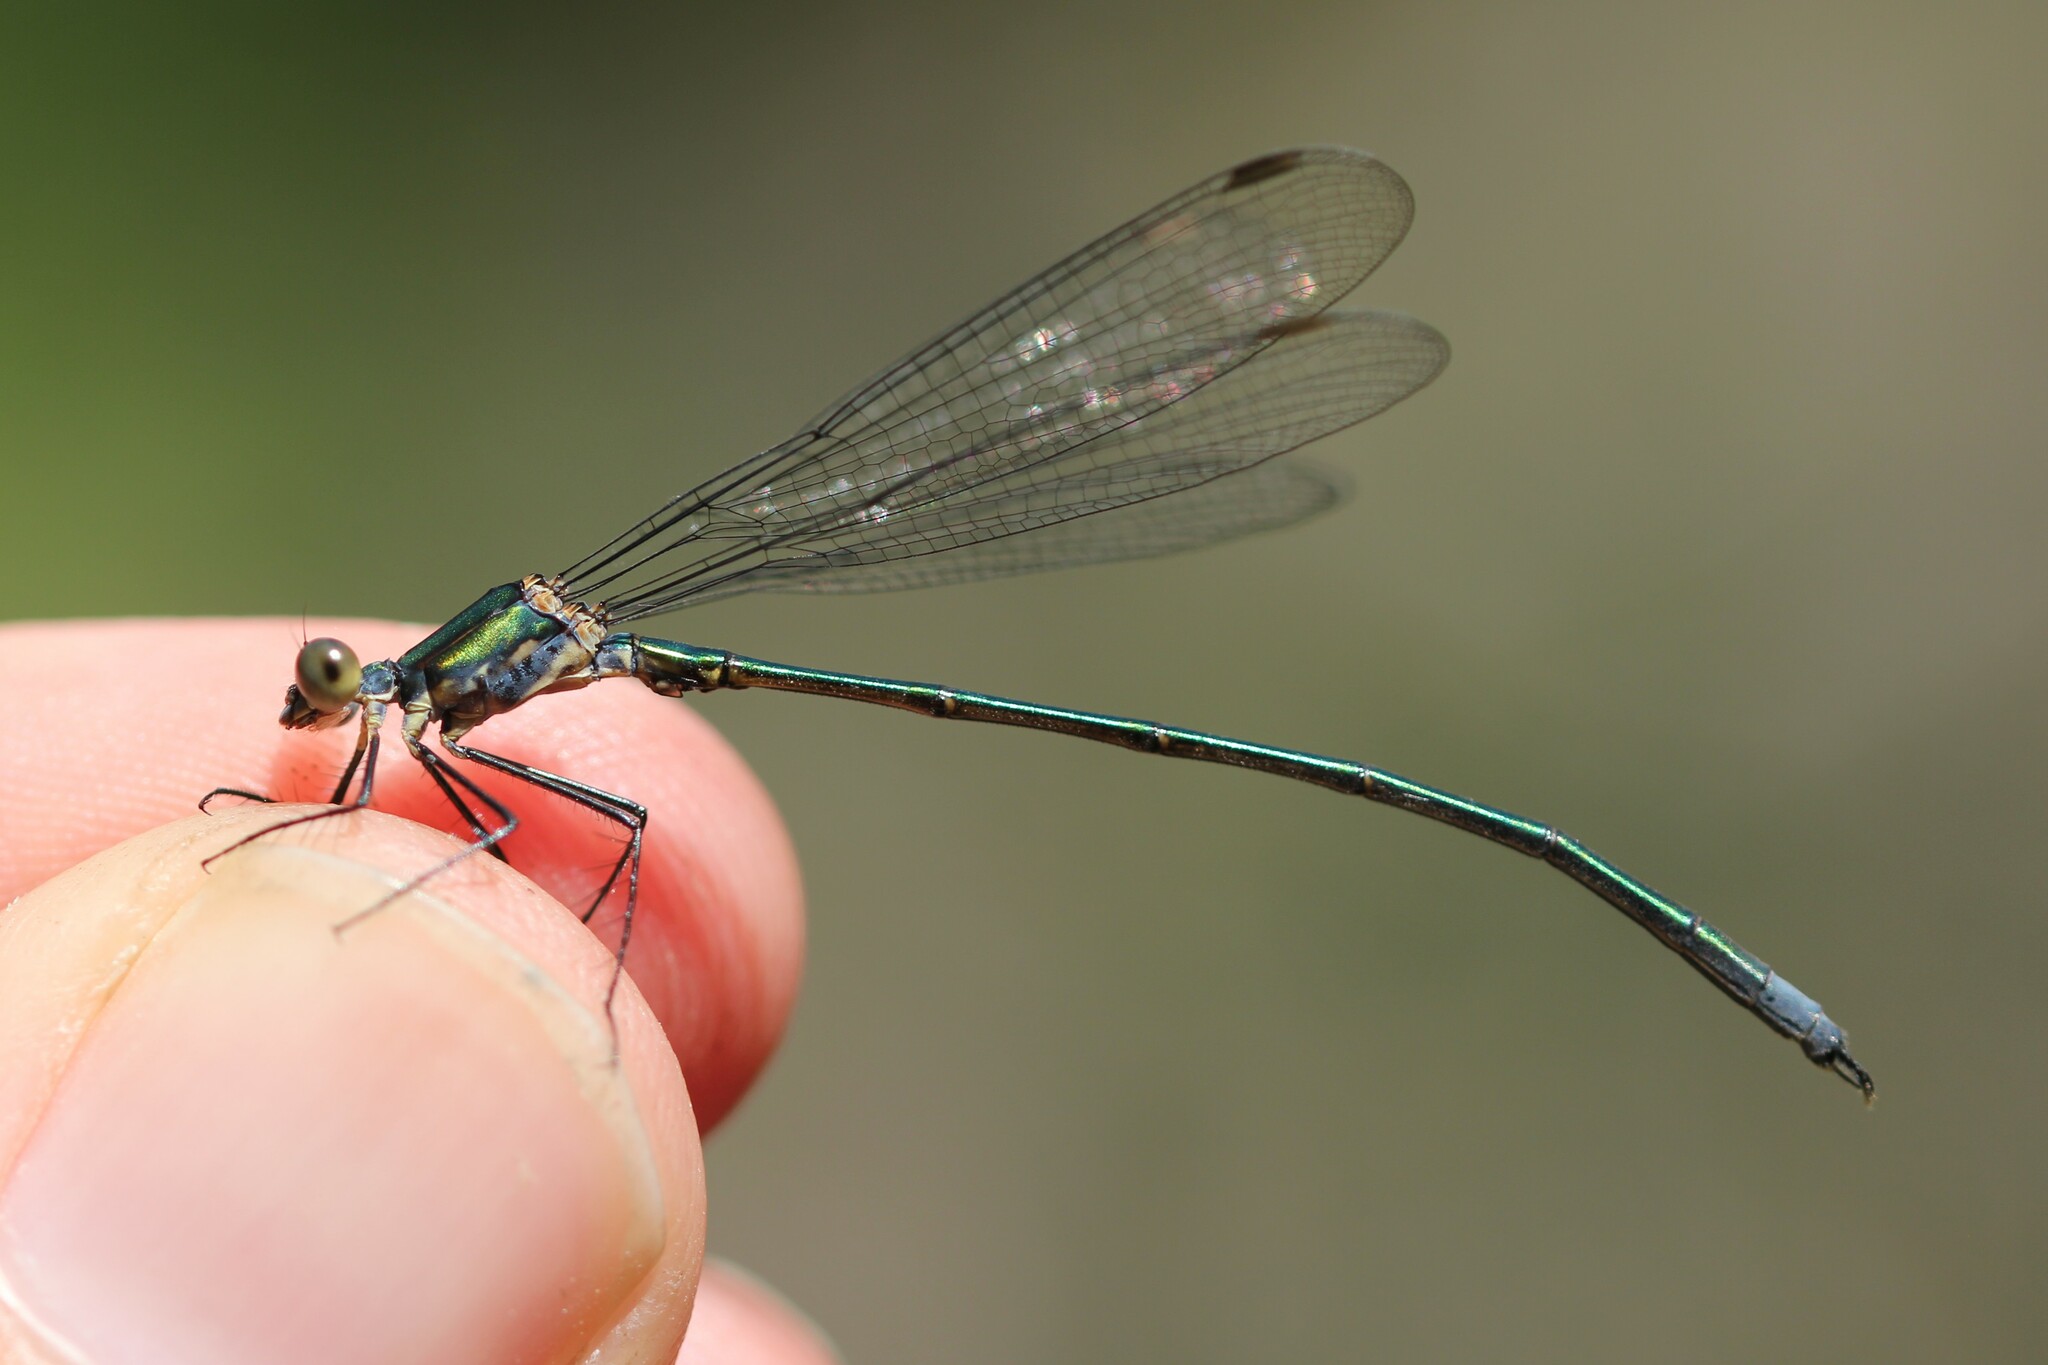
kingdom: Animalia
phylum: Arthropoda
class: Insecta
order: Odonata
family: Lestidae
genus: Lestes
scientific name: Lestes vigilax
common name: Swamp spreadwing
